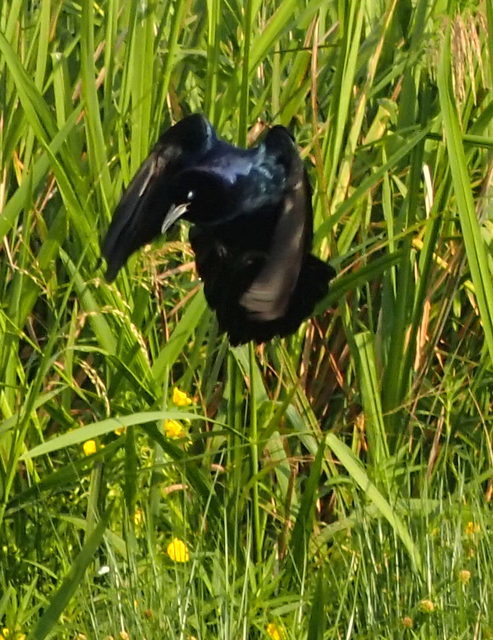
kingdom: Animalia
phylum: Chordata
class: Aves
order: Passeriformes
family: Icteridae
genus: Quiscalus
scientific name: Quiscalus major
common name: Boat-tailed grackle
